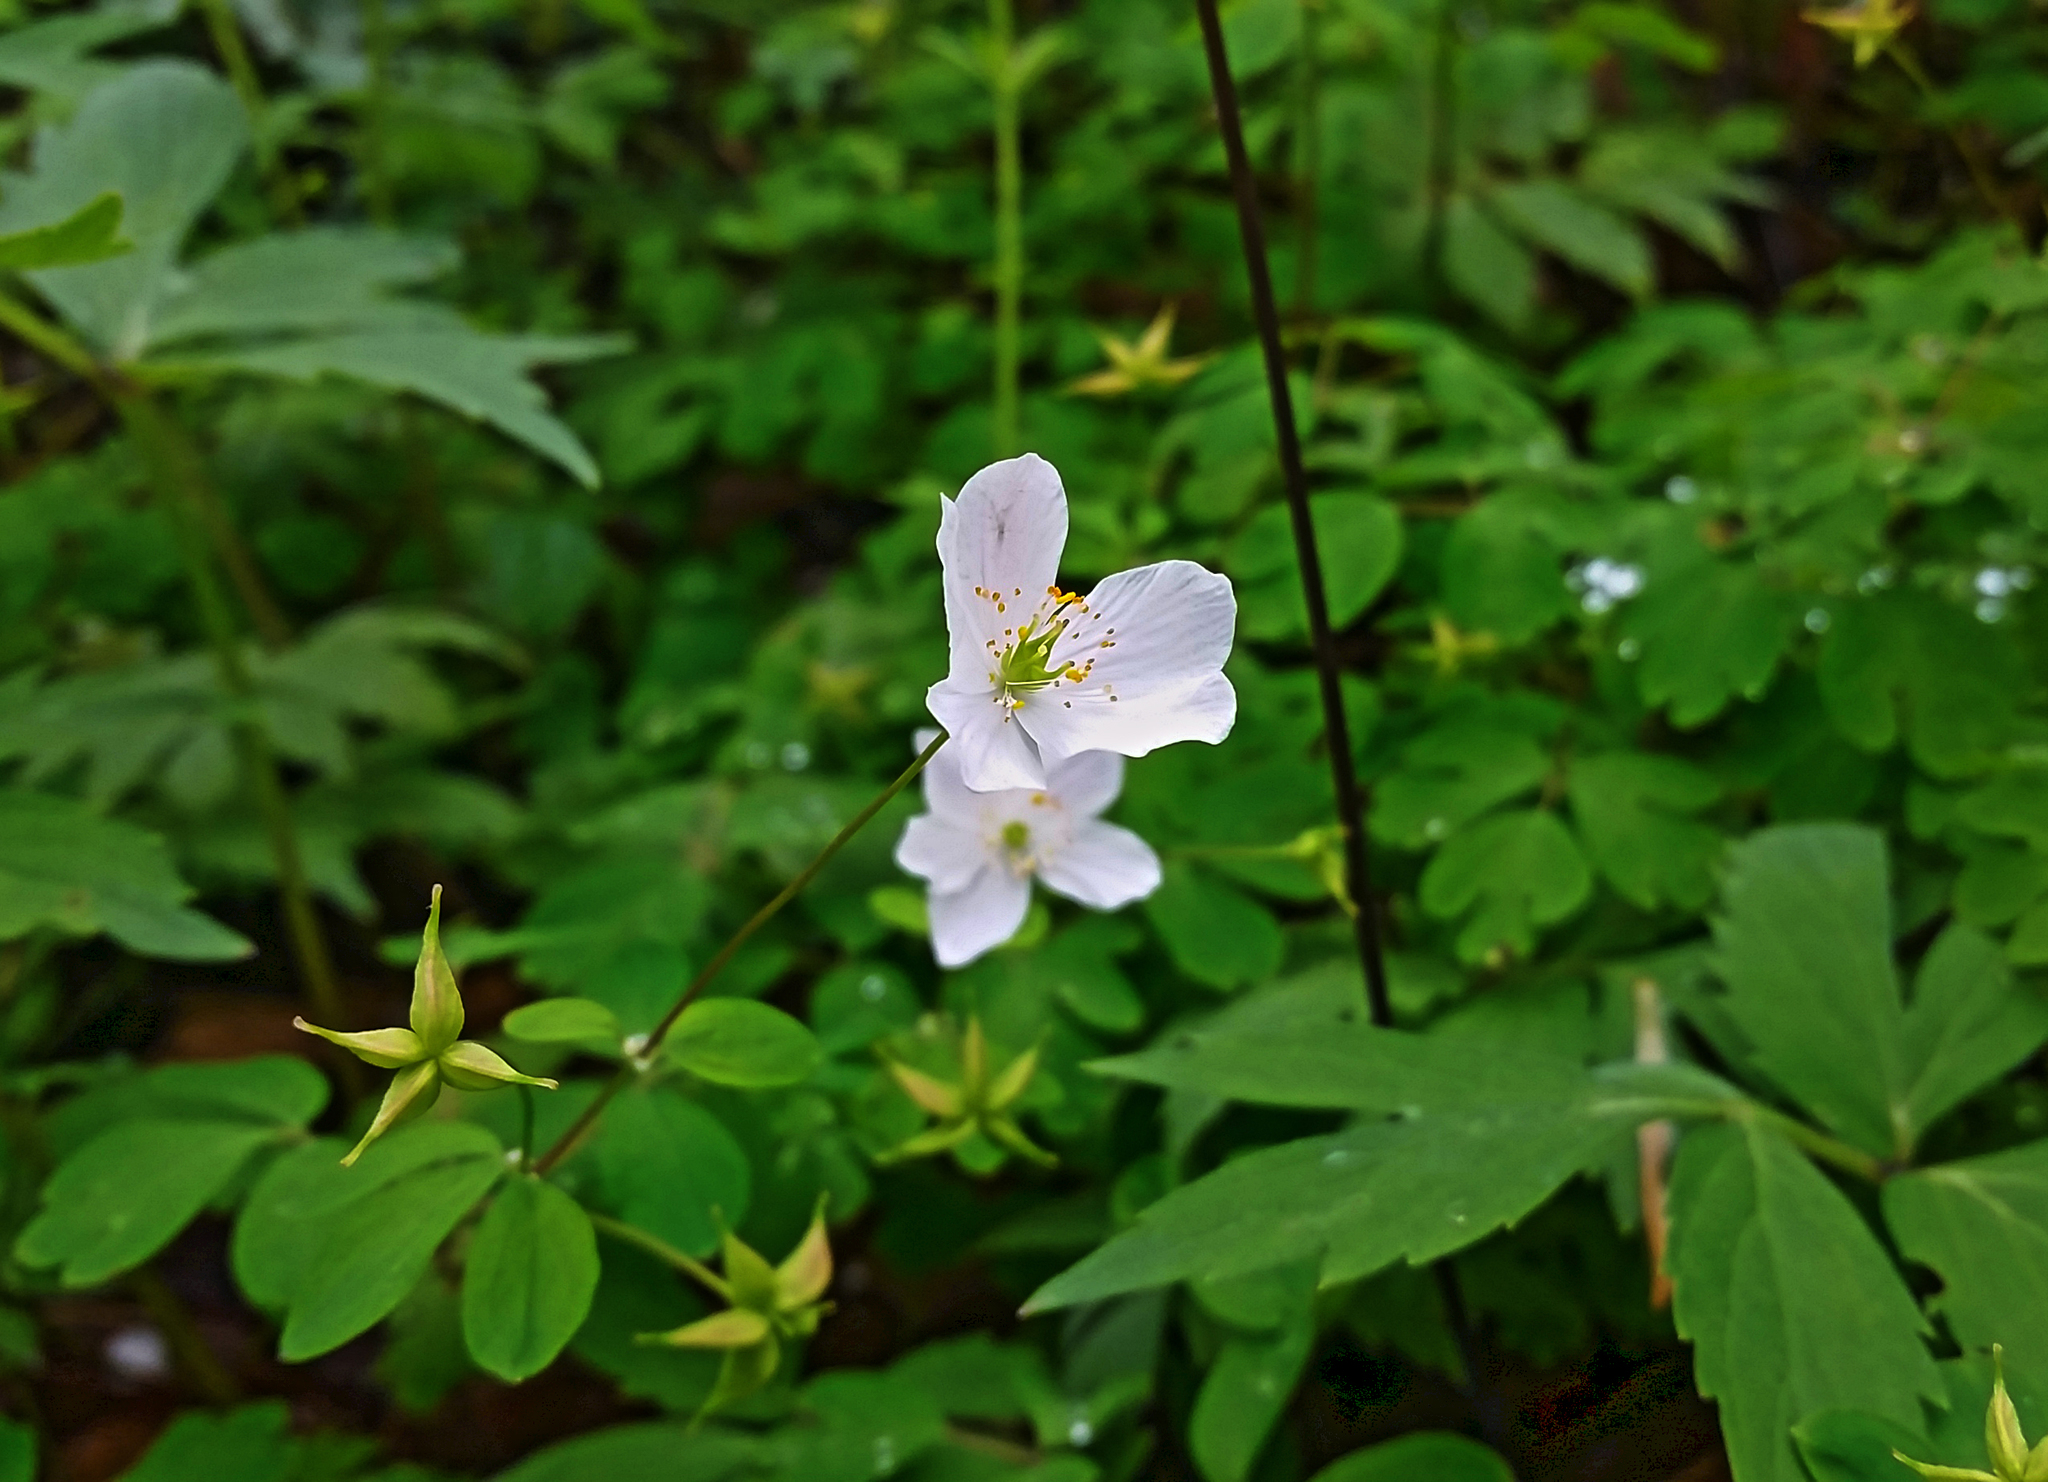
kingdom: Plantae
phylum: Tracheophyta
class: Magnoliopsida
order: Ranunculales
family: Ranunculaceae
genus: Enemion
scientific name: Enemion biternatum
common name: Eastern false rue-anemone
